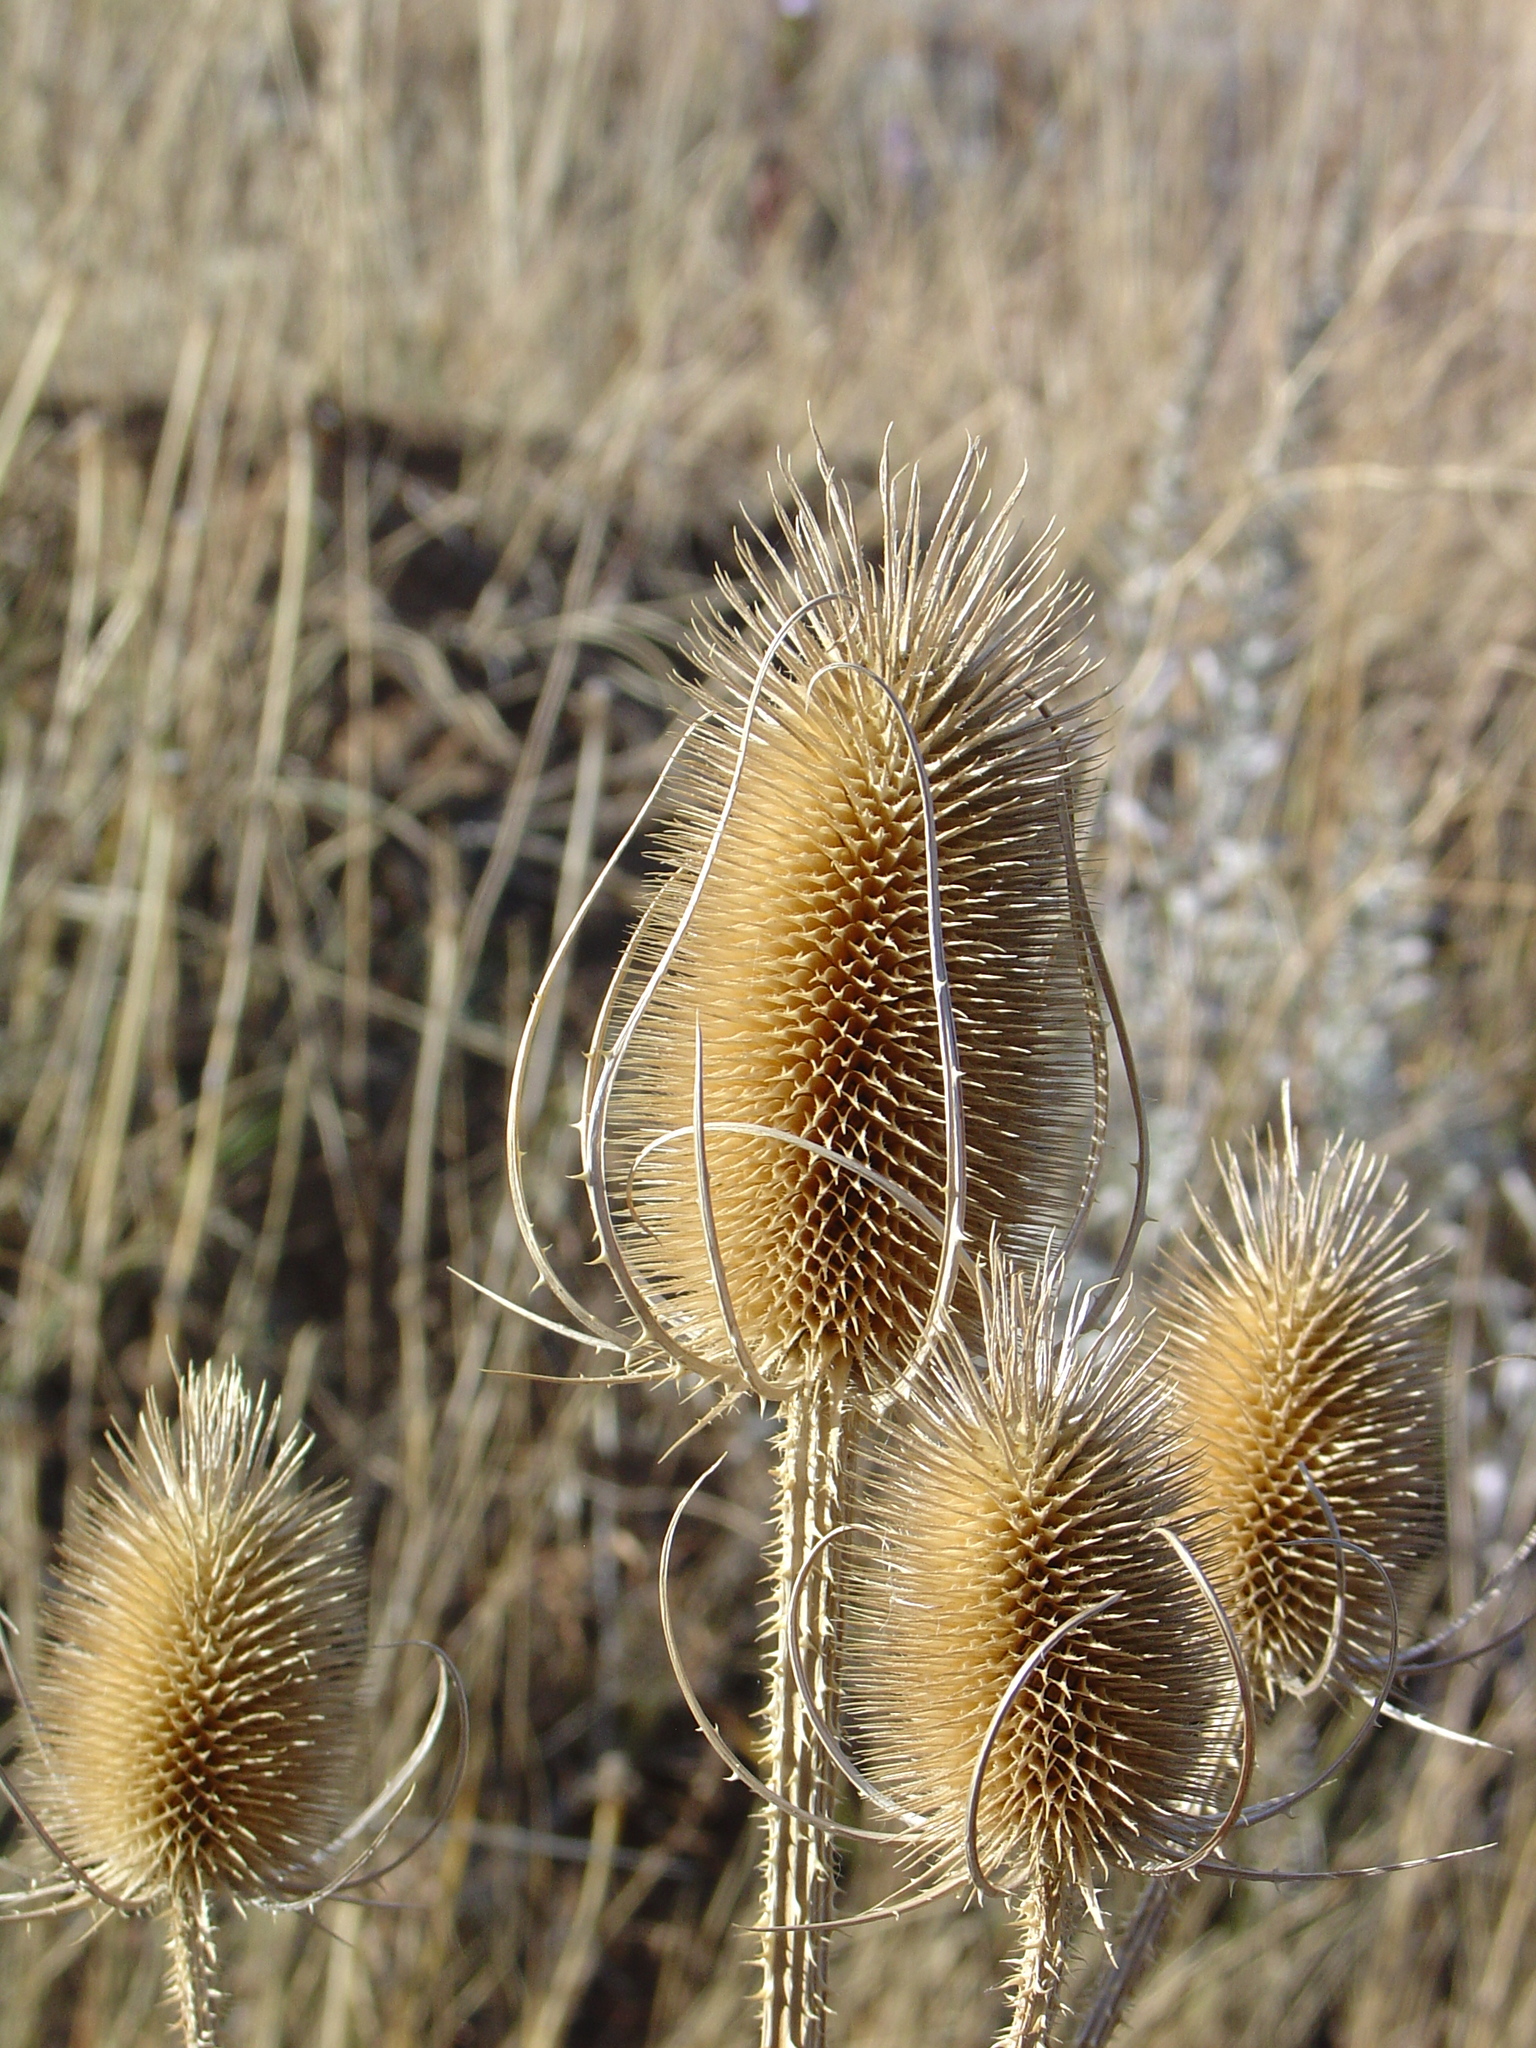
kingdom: Plantae
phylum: Tracheophyta
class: Magnoliopsida
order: Dipsacales
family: Caprifoliaceae
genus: Dipsacus
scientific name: Dipsacus fullonum
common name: Teasel
